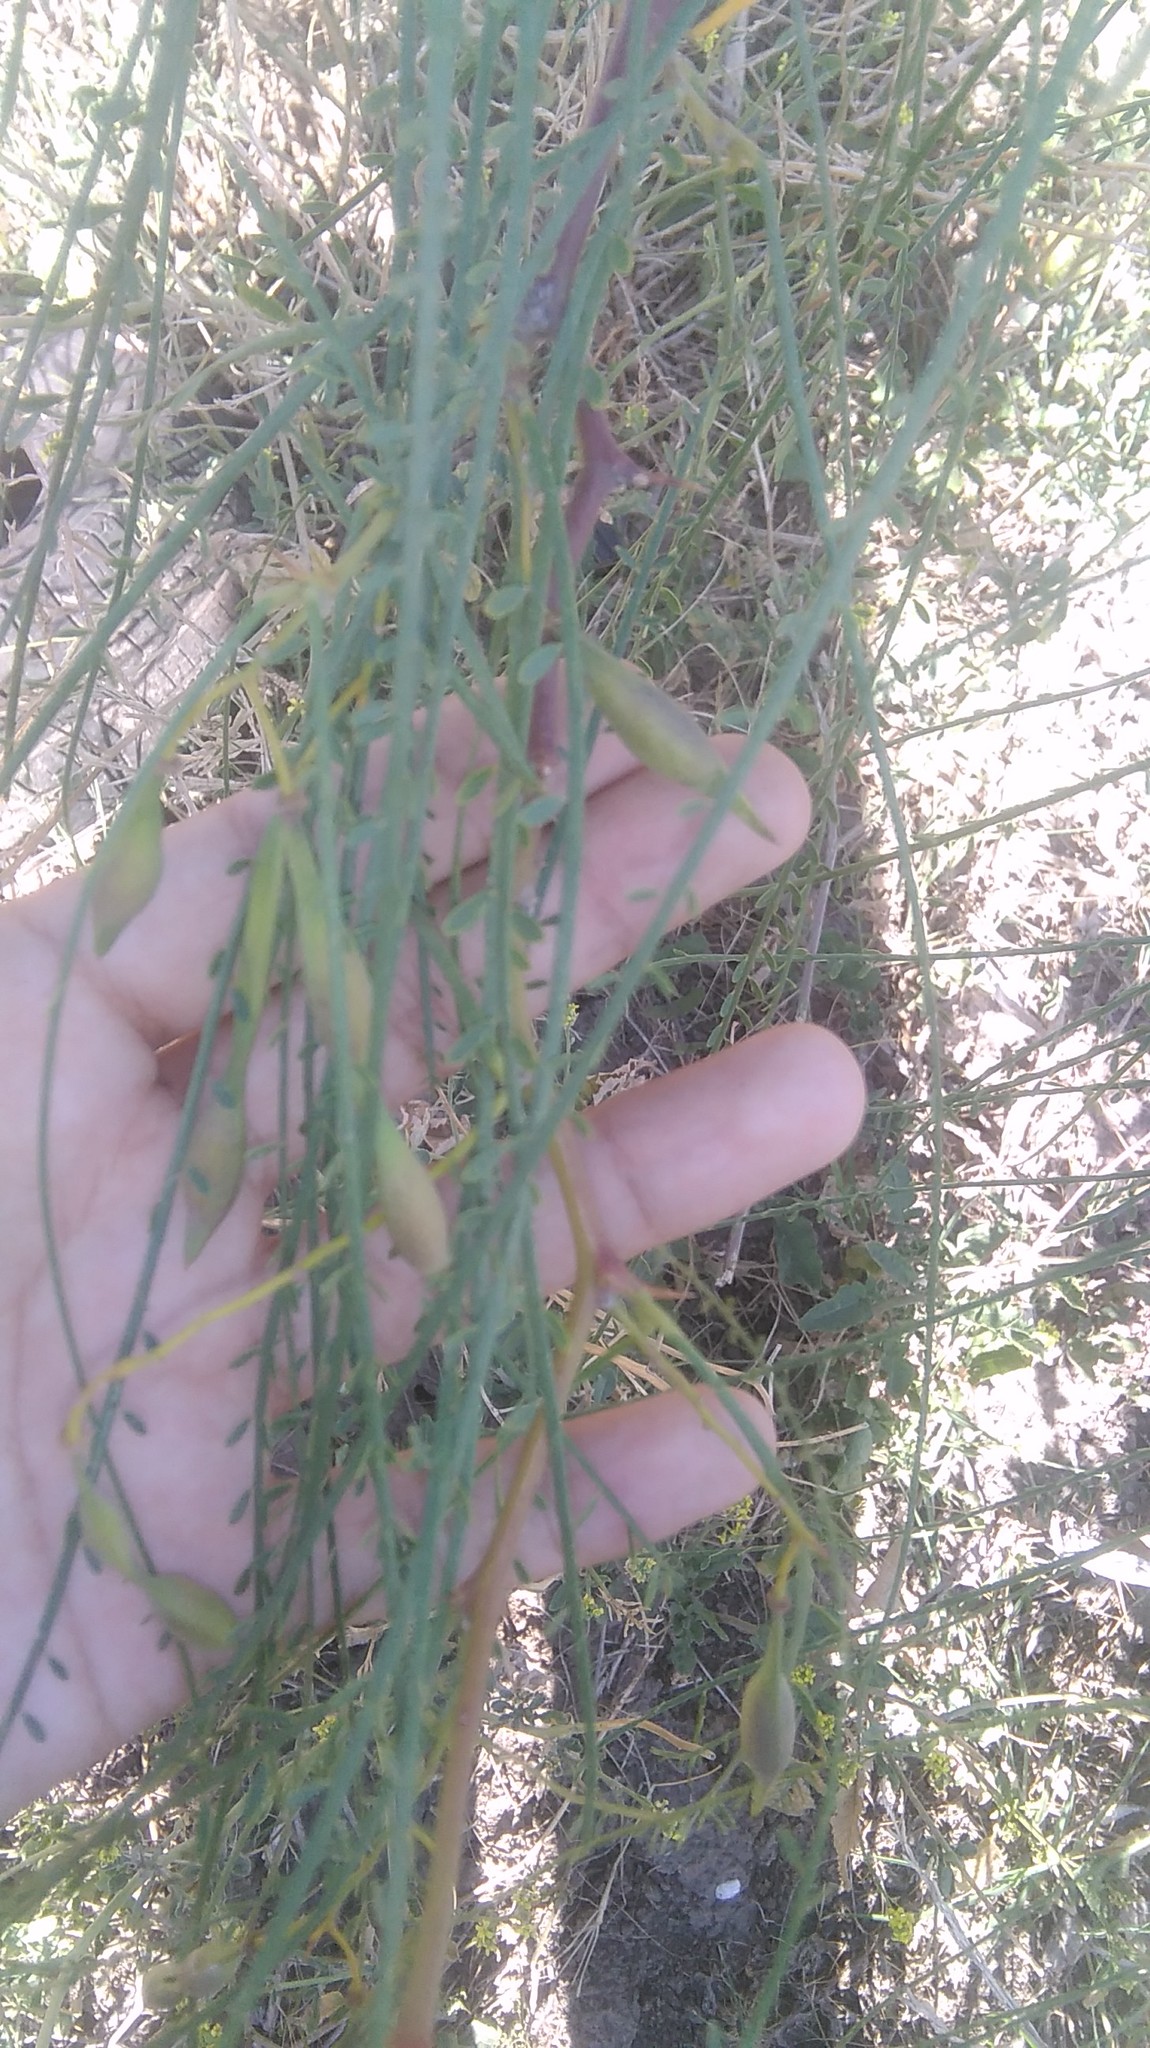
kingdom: Plantae
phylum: Tracheophyta
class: Magnoliopsida
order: Fabales
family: Fabaceae
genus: Parkinsonia
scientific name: Parkinsonia aculeata
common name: Jerusalem thorn
